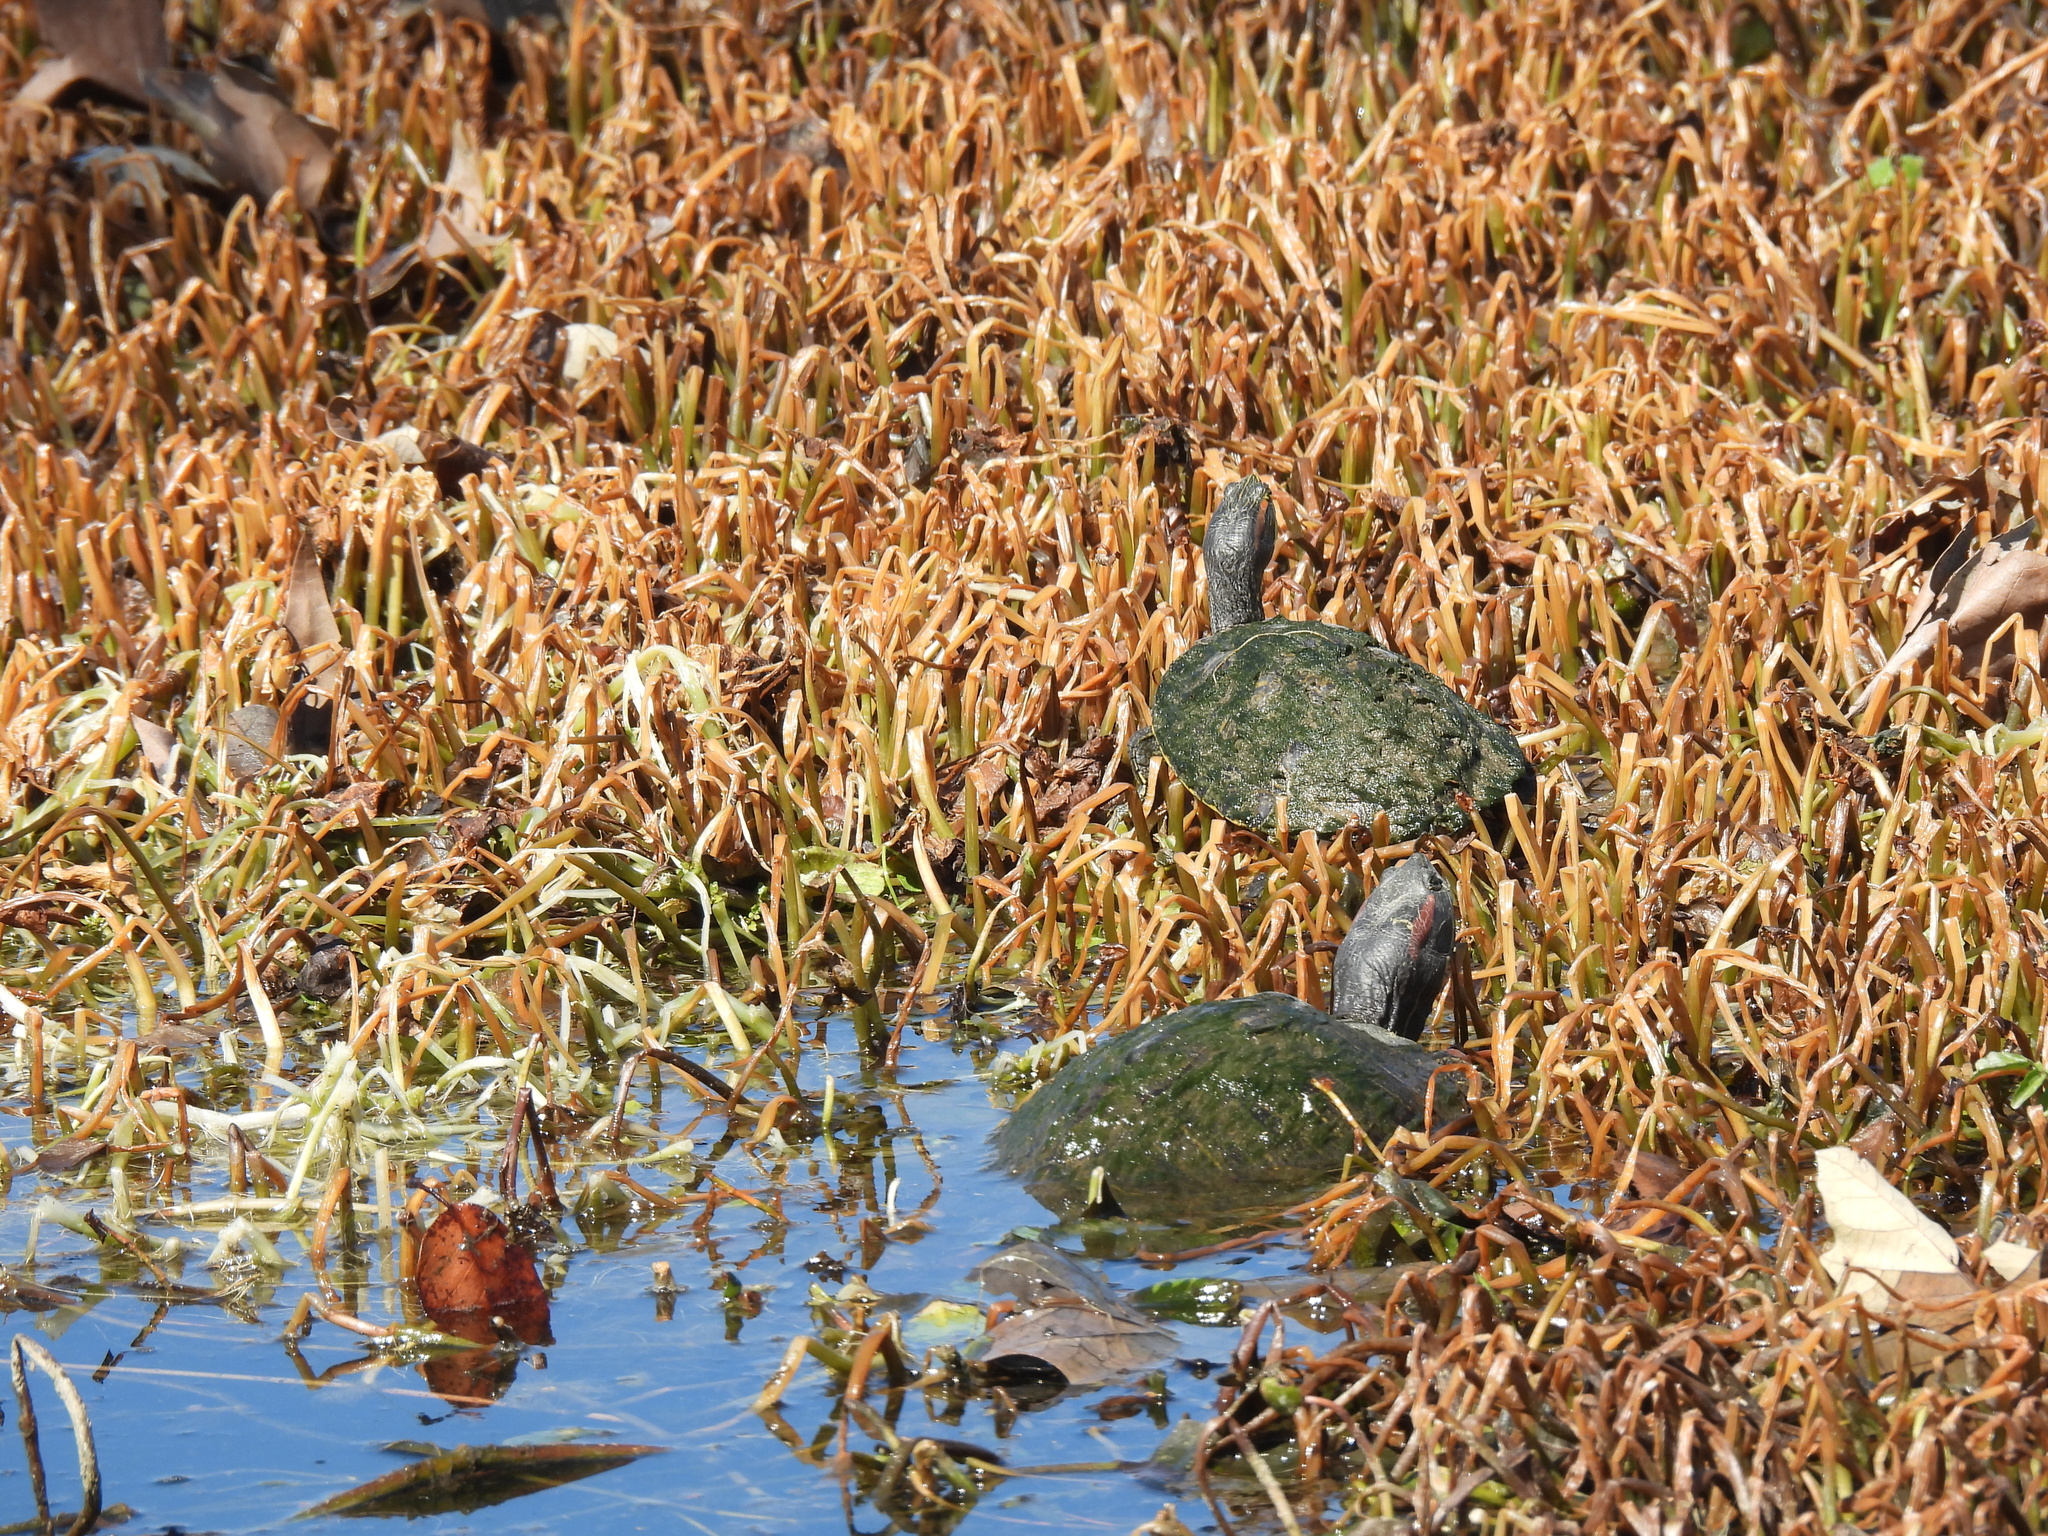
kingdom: Animalia
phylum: Chordata
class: Testudines
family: Emydidae
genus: Trachemys
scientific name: Trachemys scripta
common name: Slider
